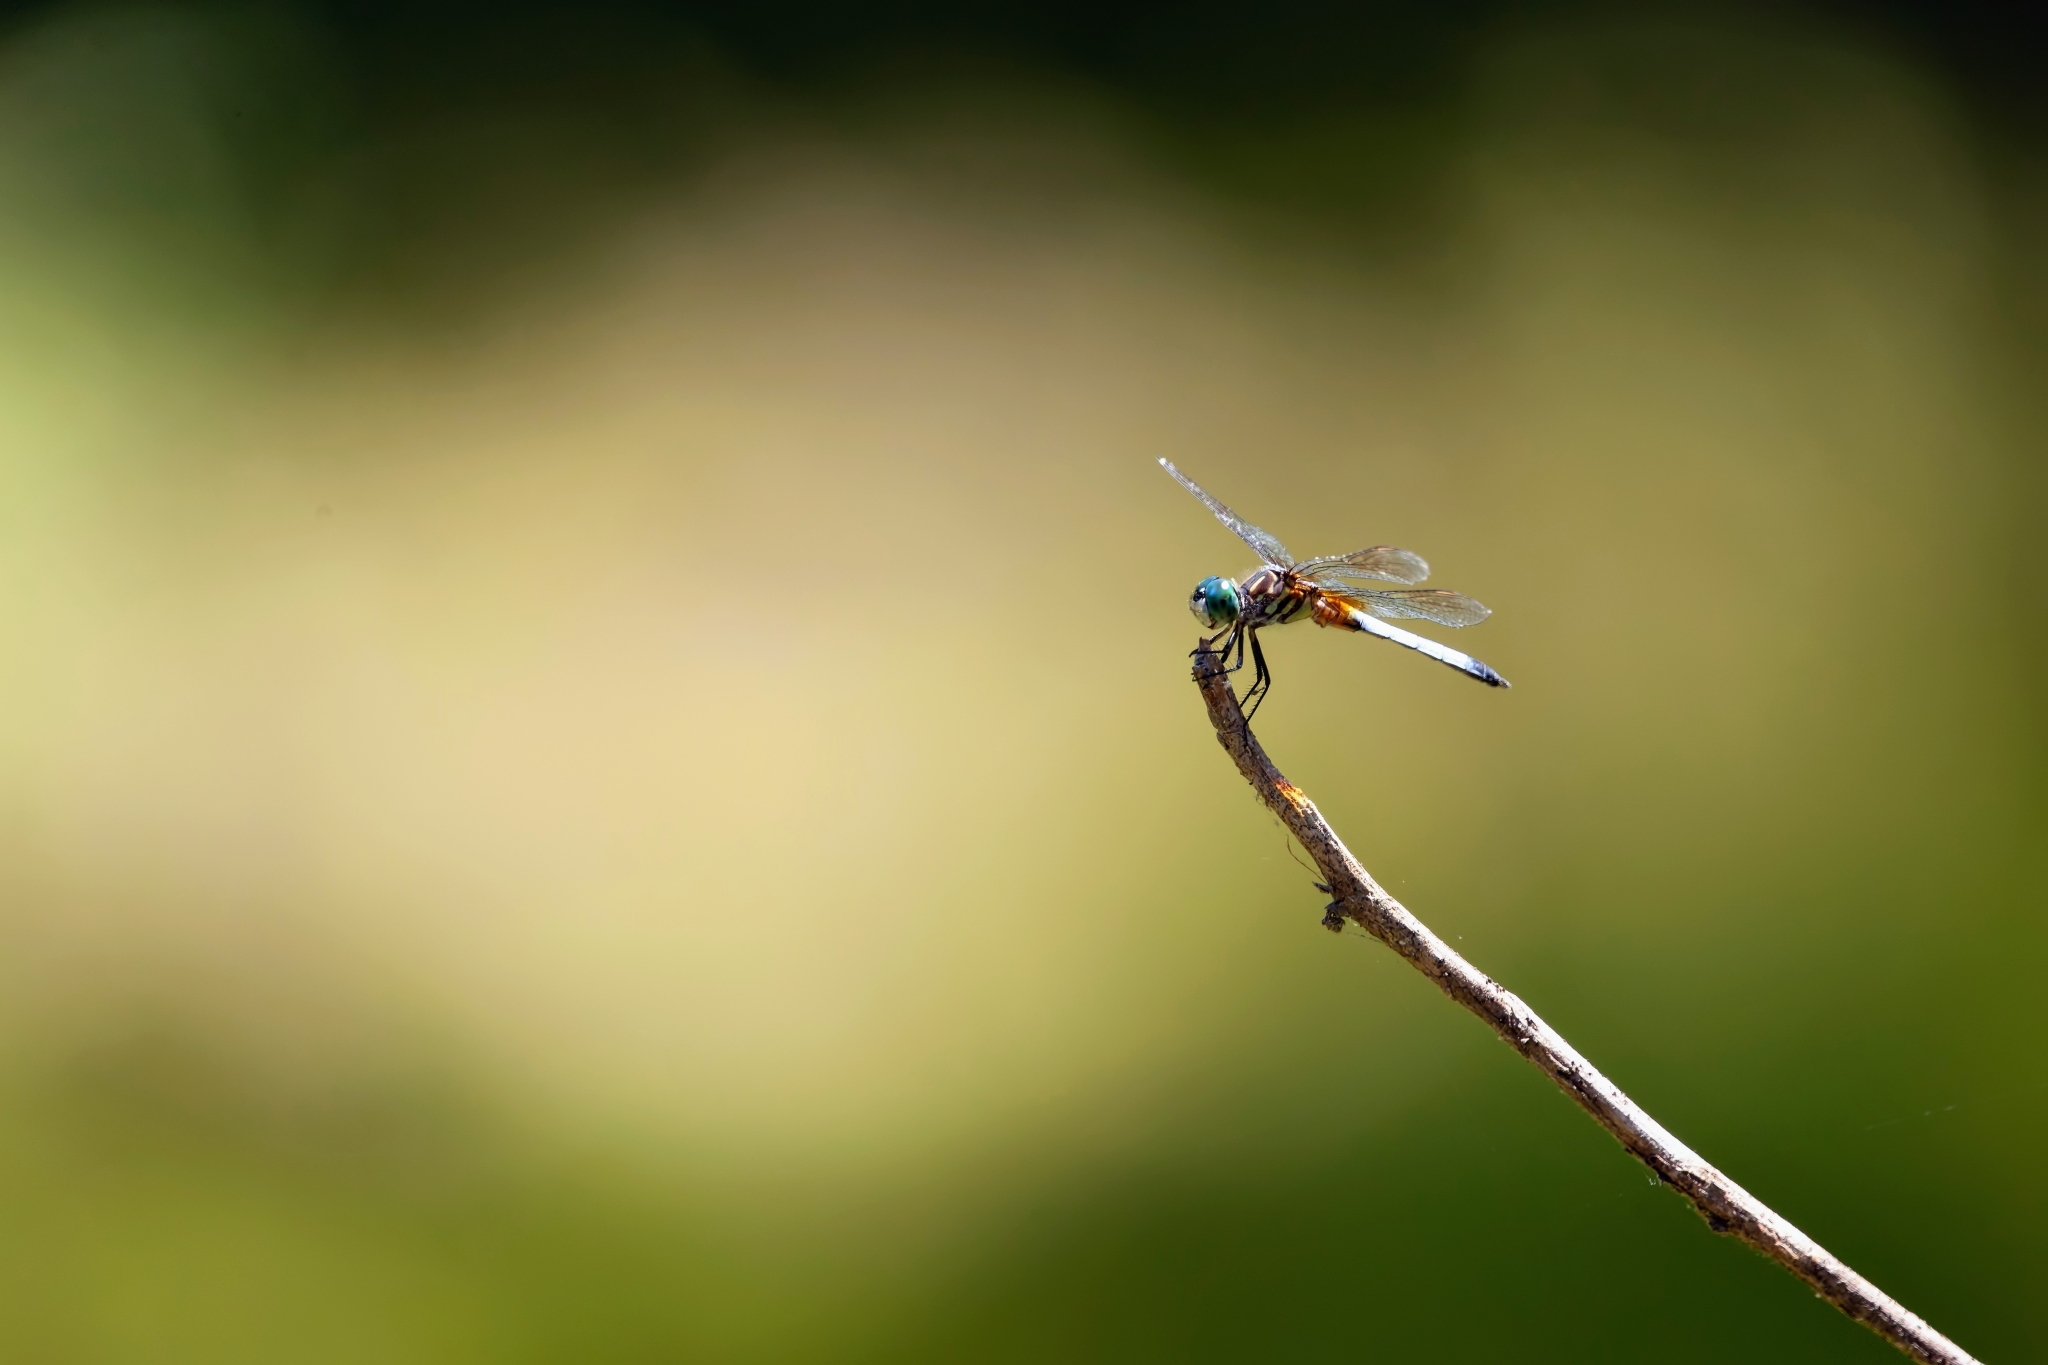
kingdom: Animalia
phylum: Arthropoda
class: Insecta
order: Odonata
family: Libellulidae
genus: Pachydiplax
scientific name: Pachydiplax longipennis
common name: Blue dasher
